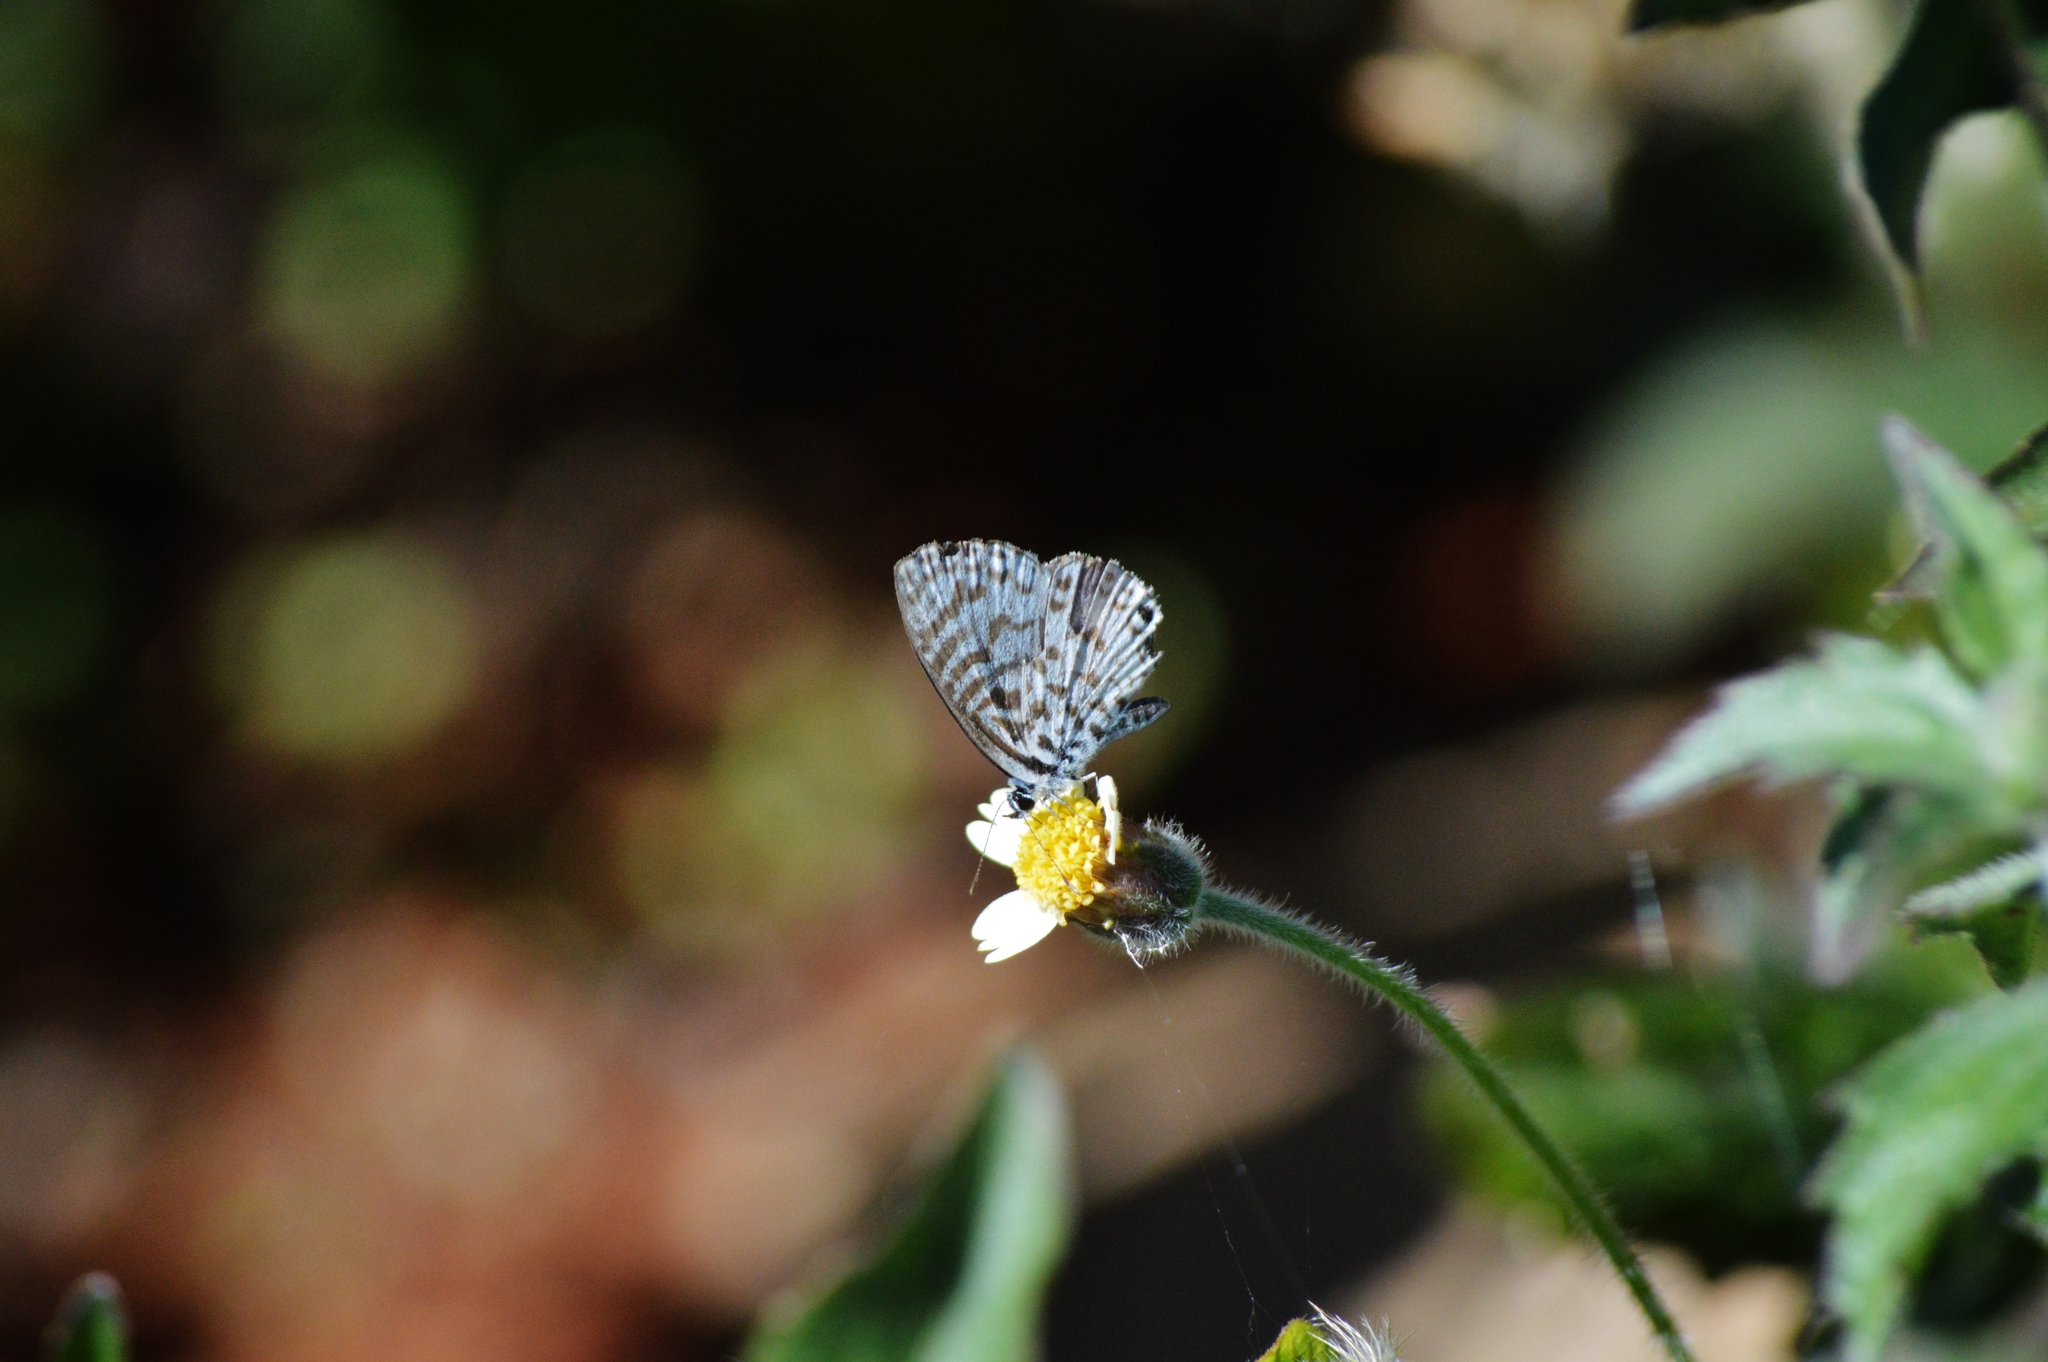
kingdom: Animalia
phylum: Arthropoda
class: Insecta
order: Lepidoptera
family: Lycaenidae
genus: Leptotes
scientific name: Leptotes cassius
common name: Cassius blue
